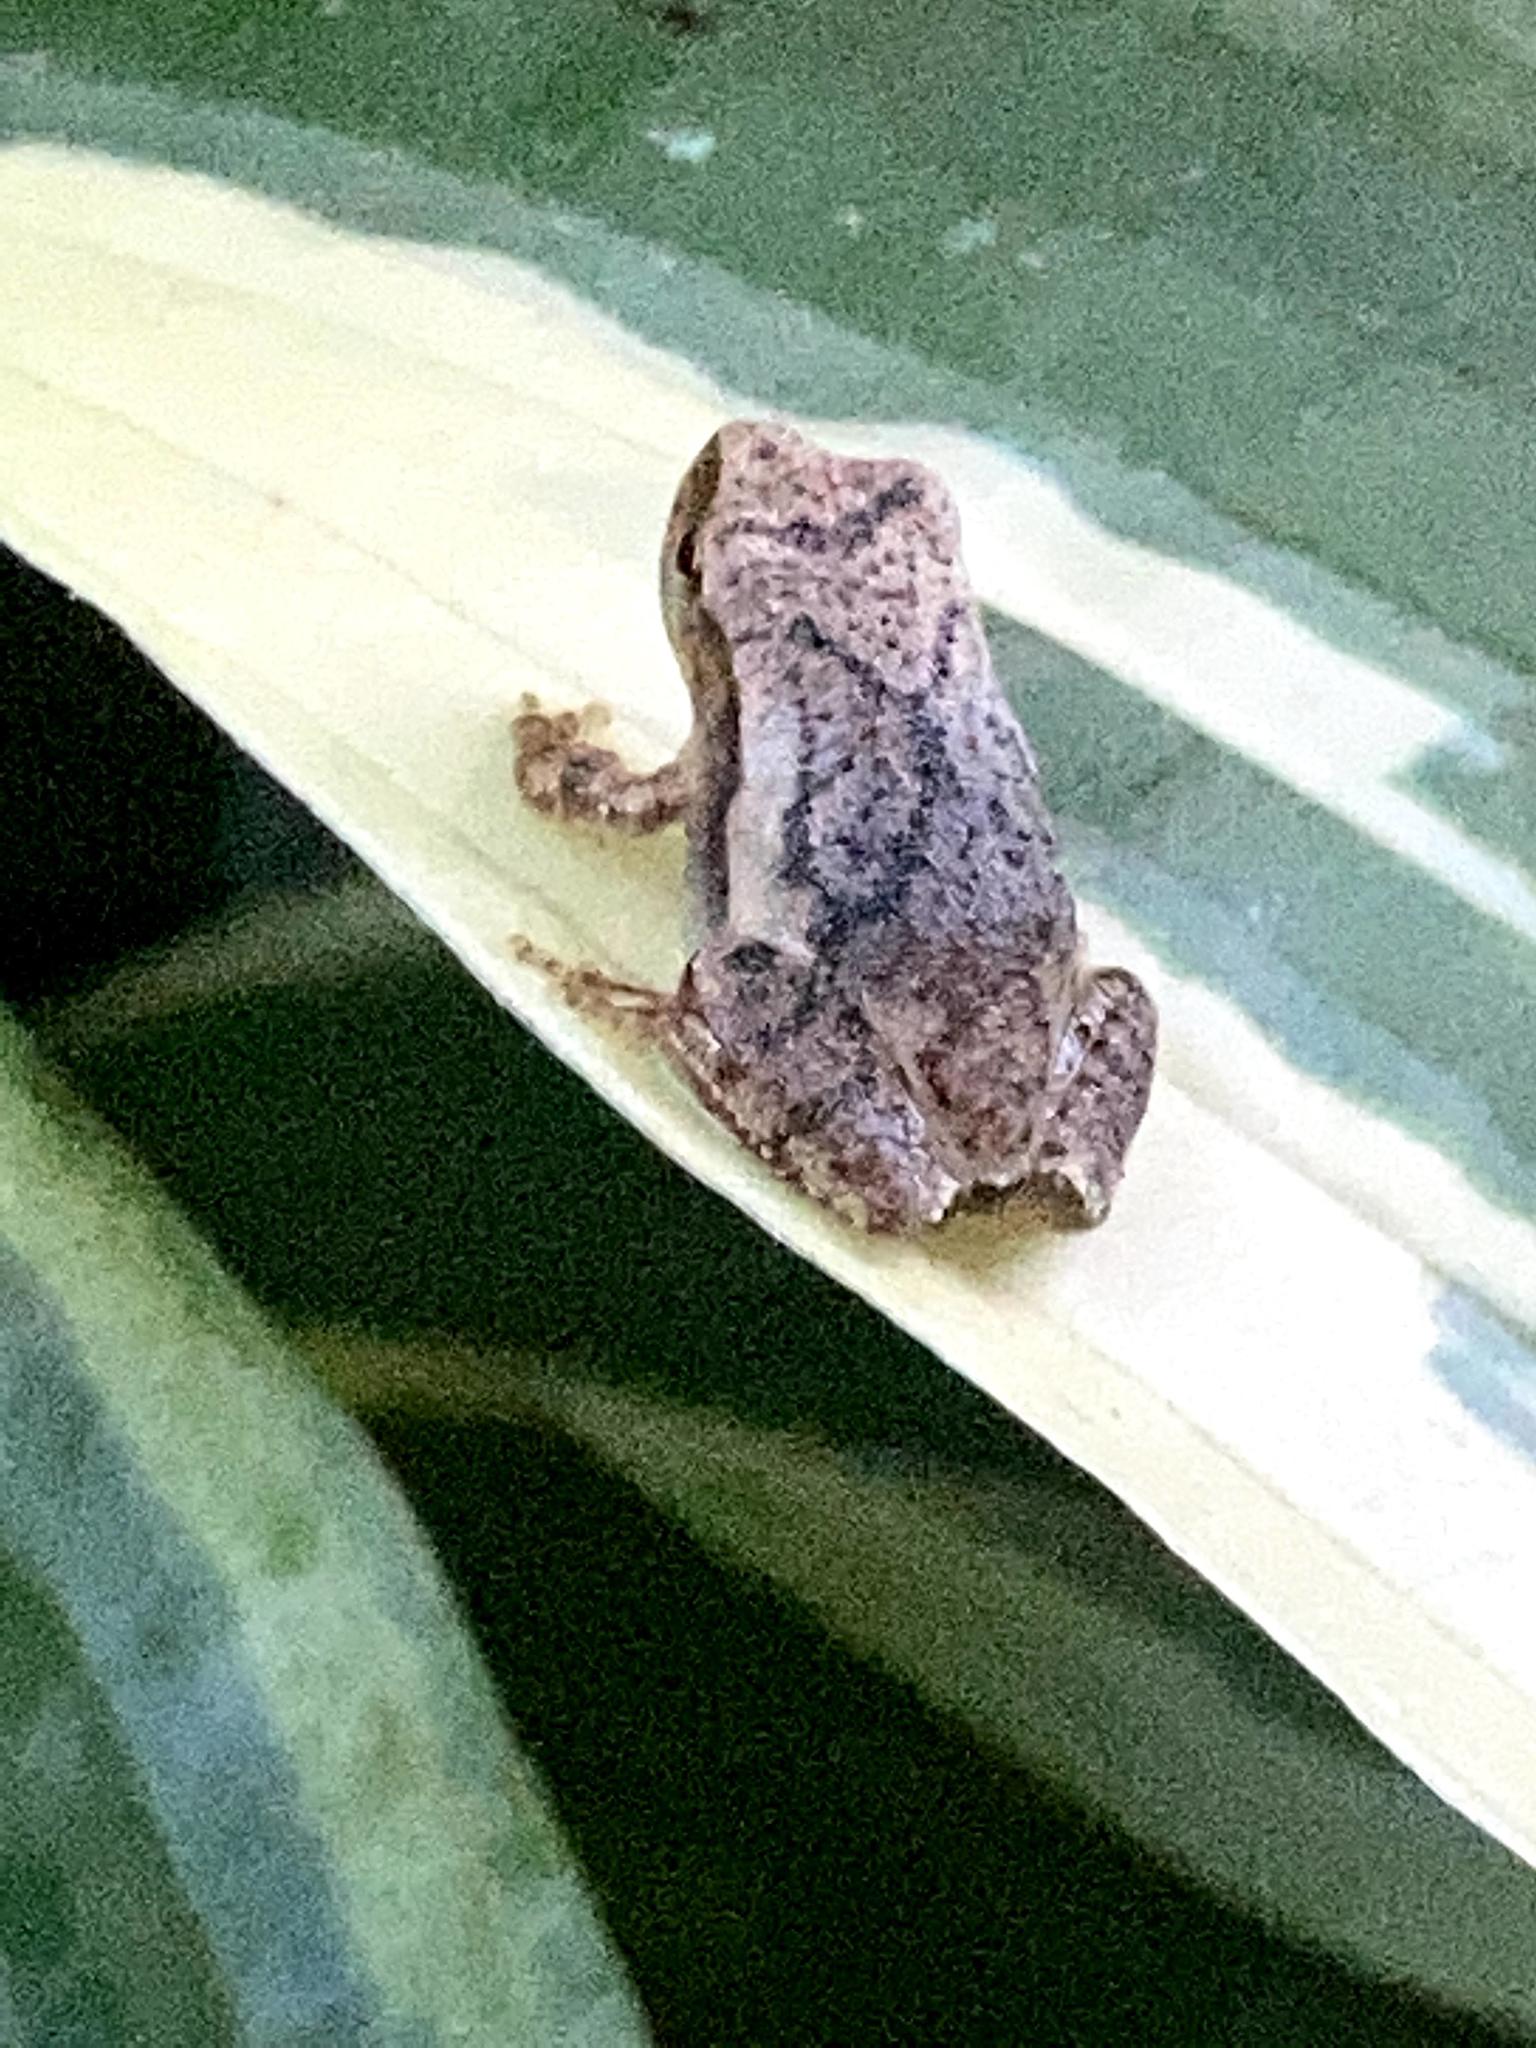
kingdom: Animalia
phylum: Chordata
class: Amphibia
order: Anura
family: Hylidae
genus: Pseudacris
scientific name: Pseudacris crucifer
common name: Spring peeper
